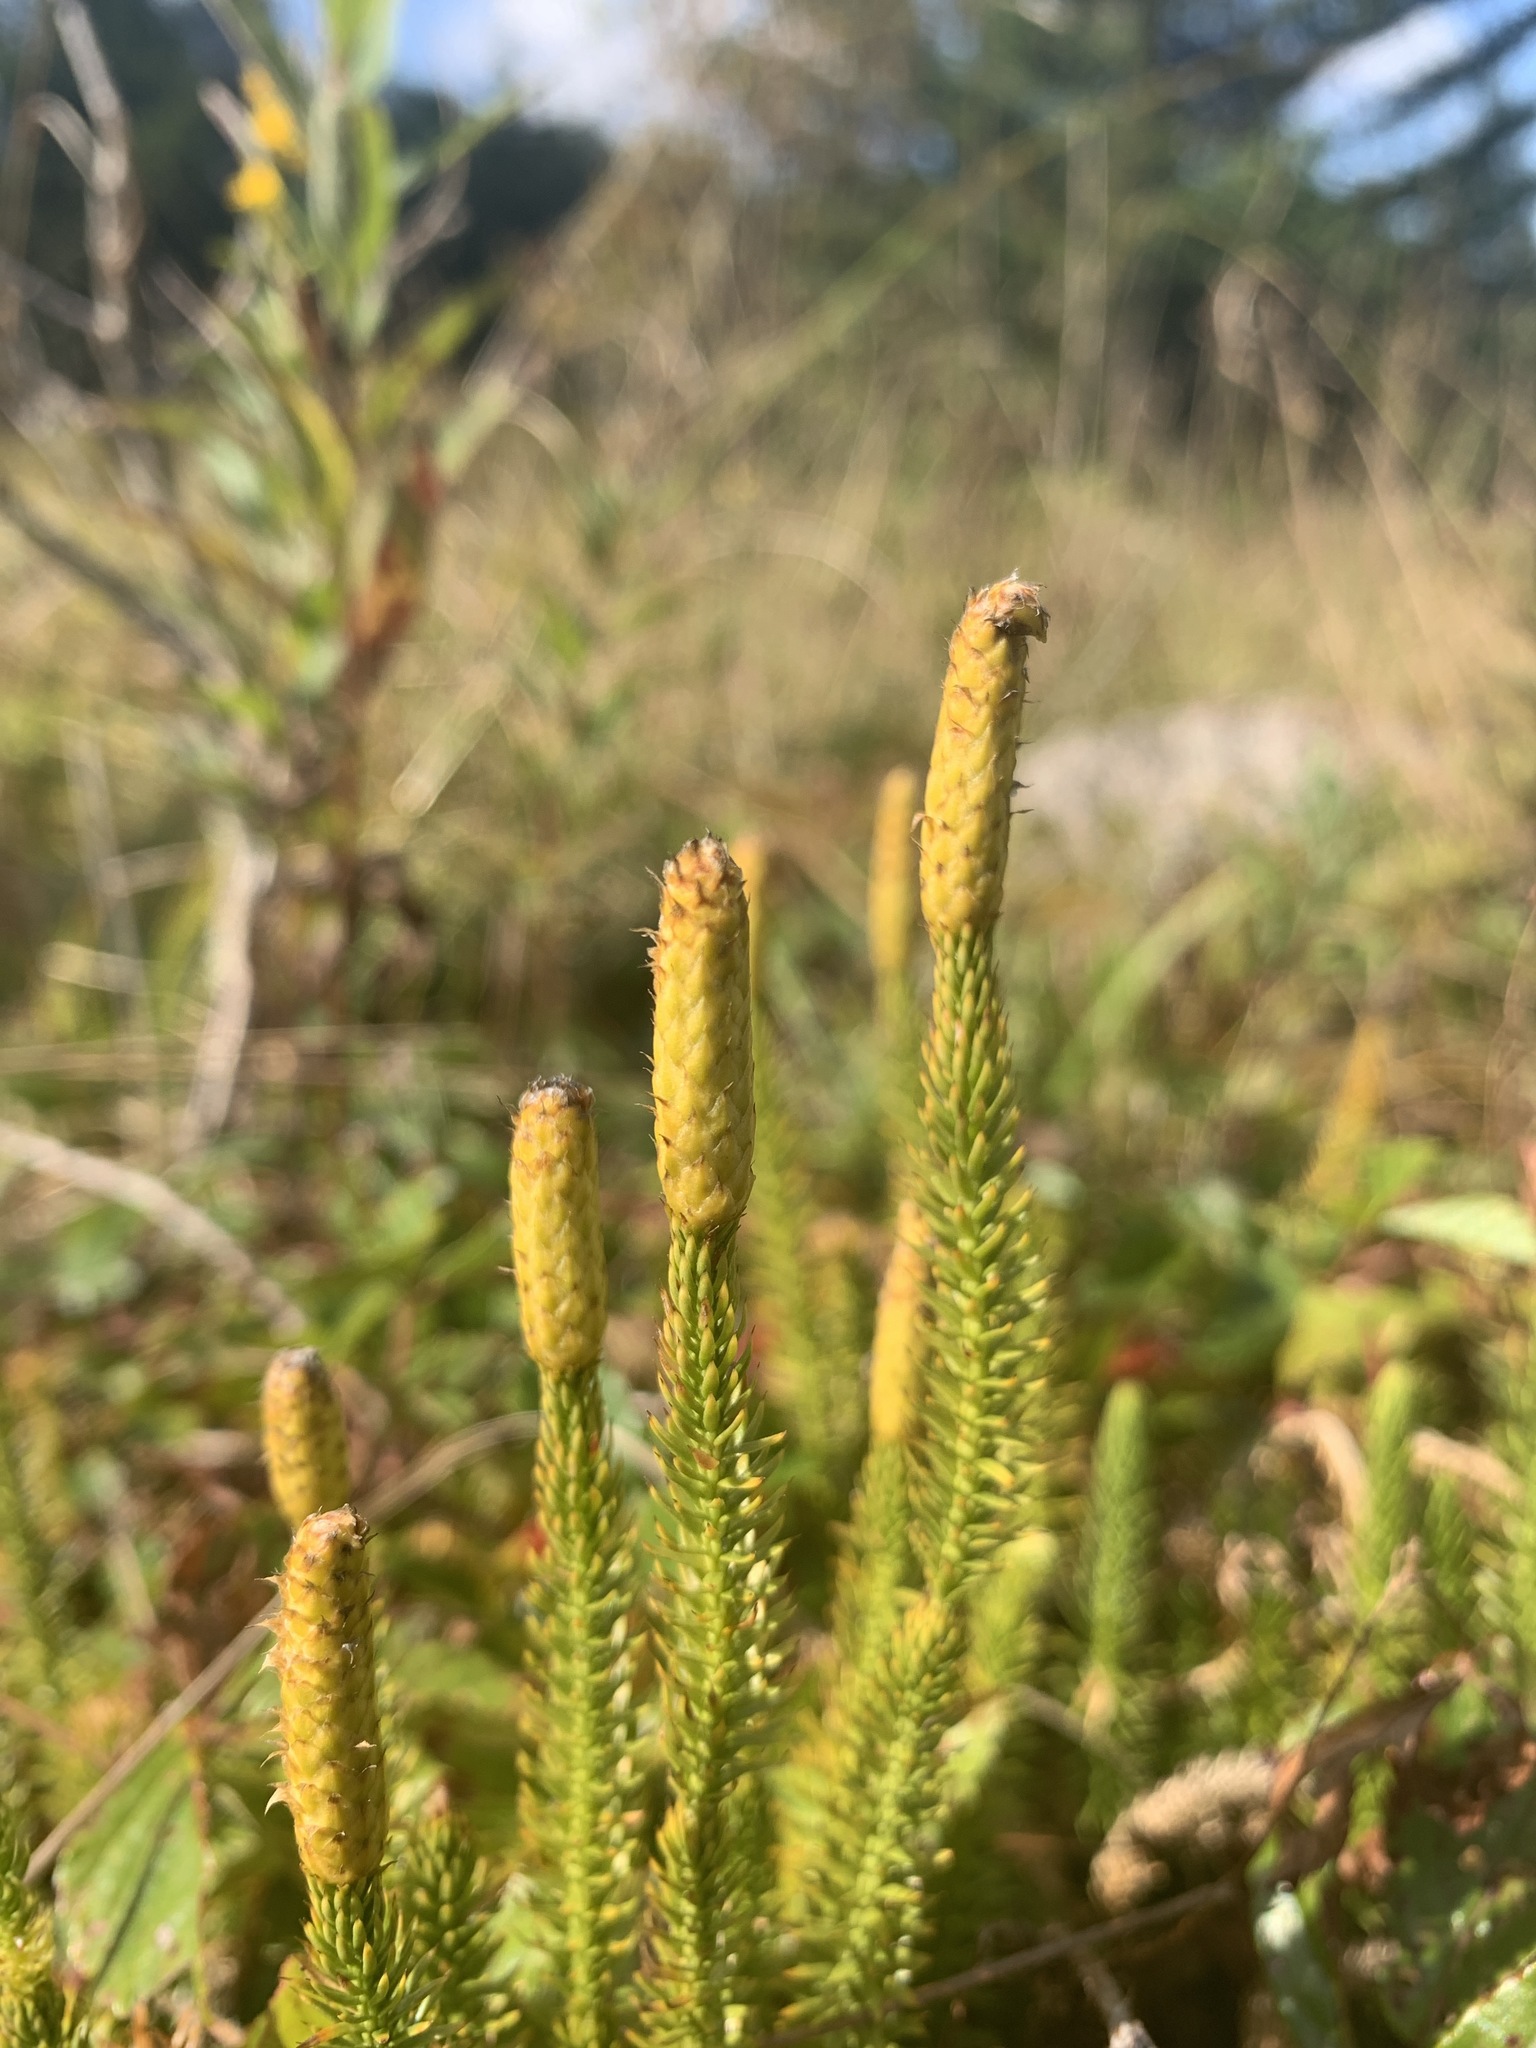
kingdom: Plantae
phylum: Tracheophyta
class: Lycopodiopsida
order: Lycopodiales
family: Lycopodiaceae
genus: Spinulum
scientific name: Spinulum annotinum
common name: Interrupted club-moss
